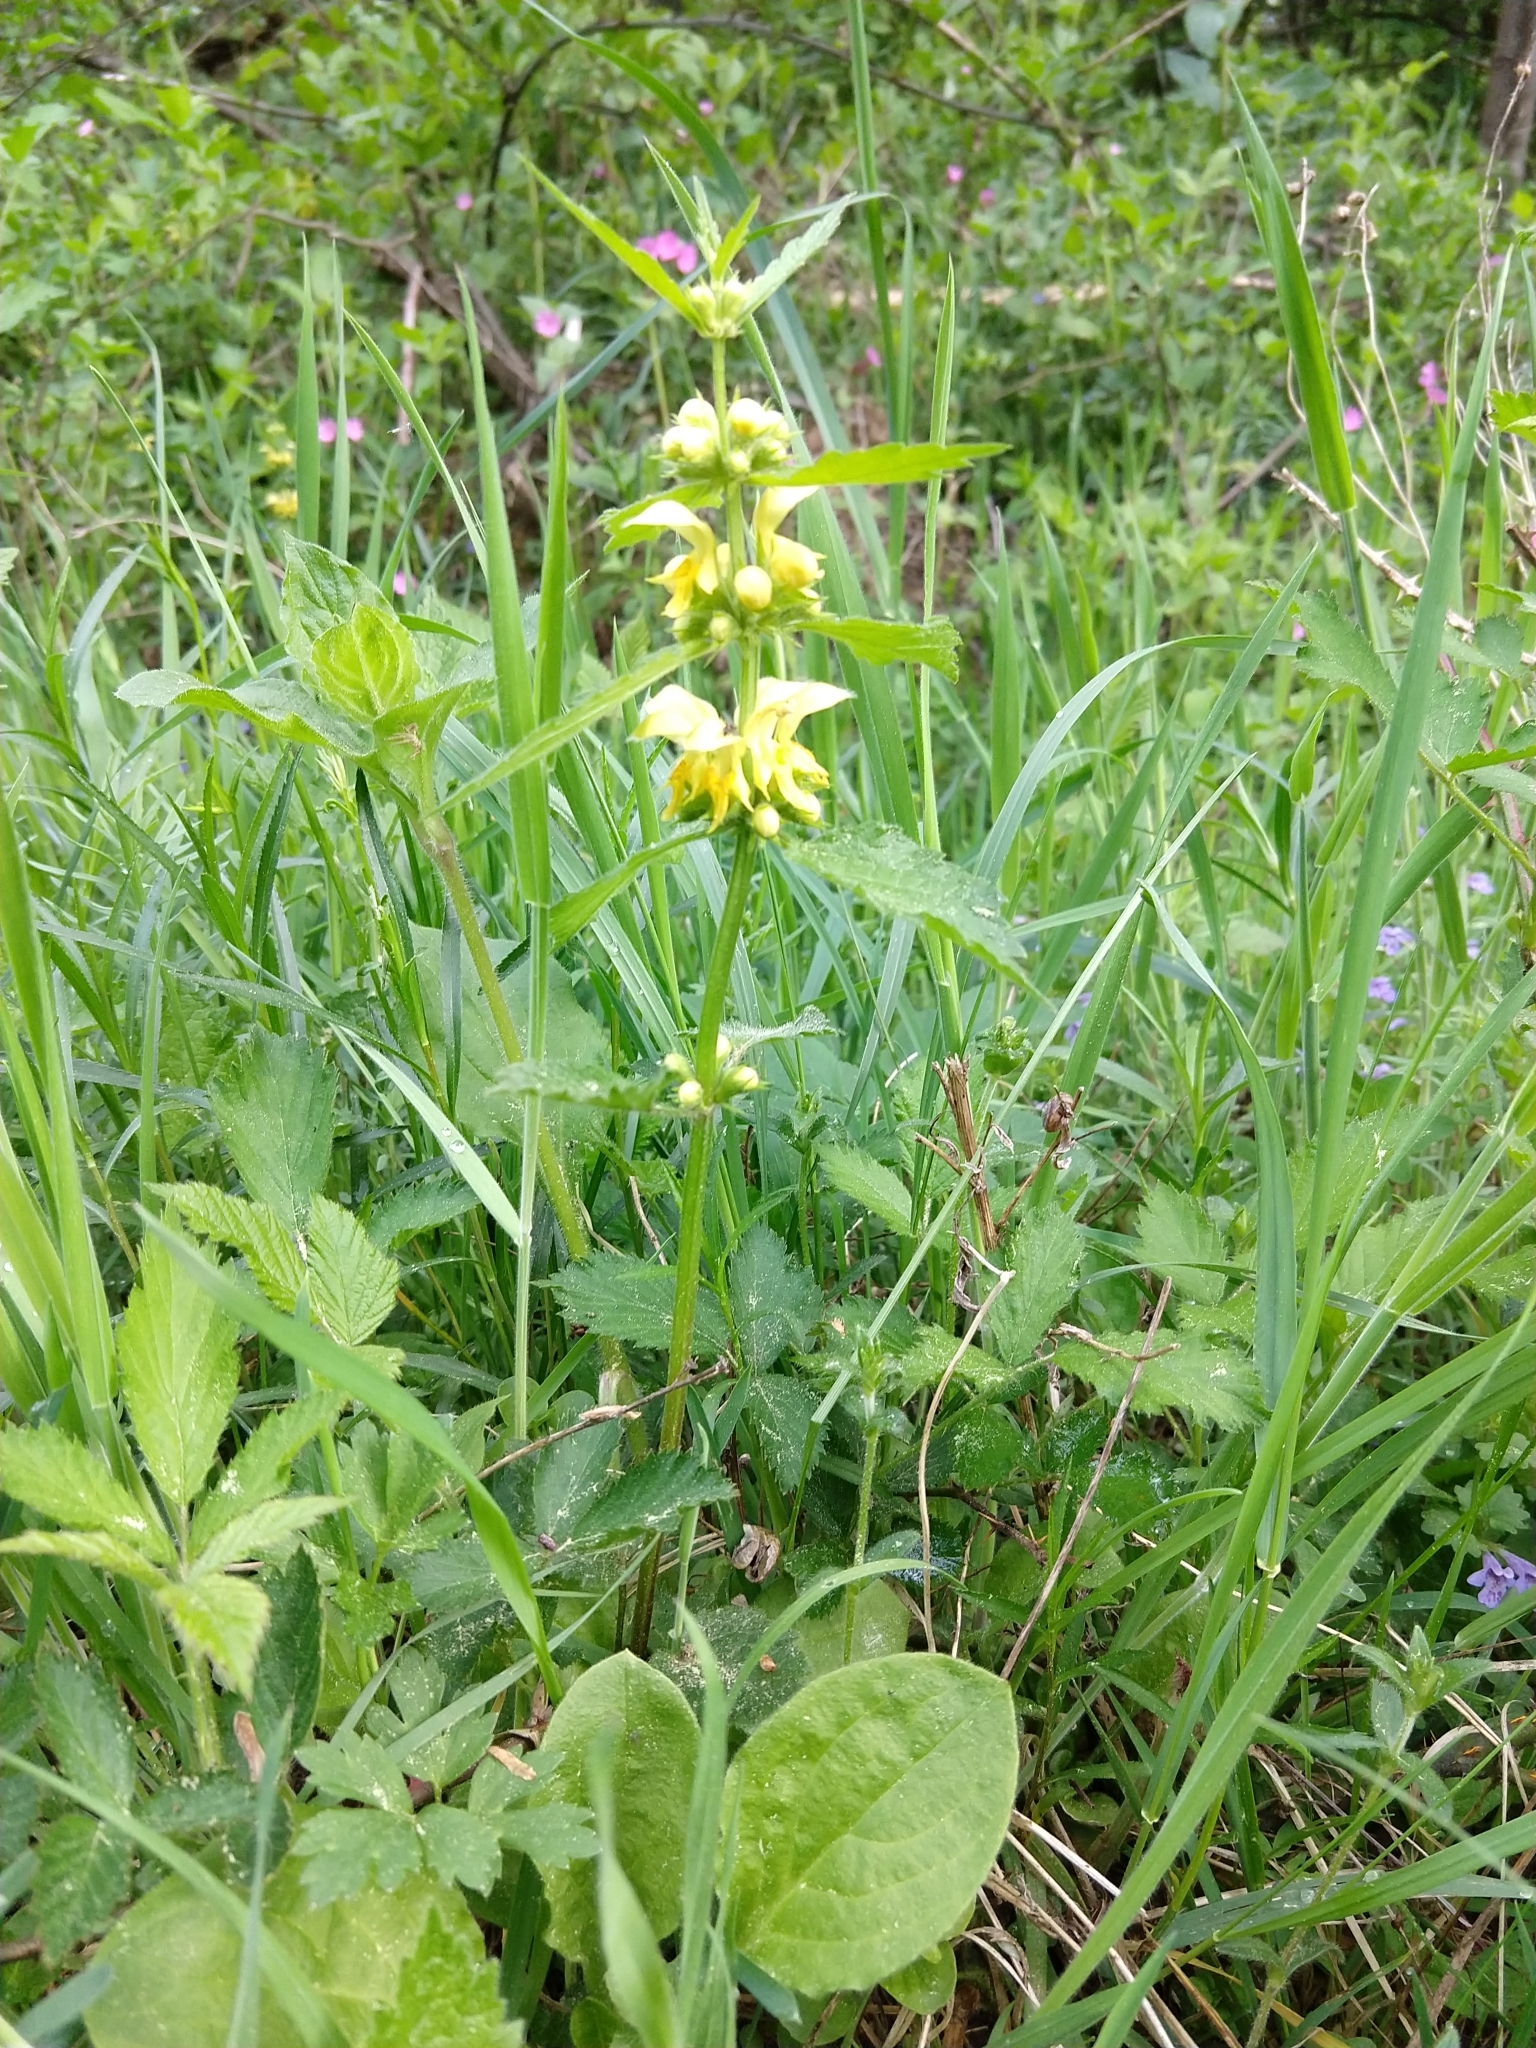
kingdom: Plantae
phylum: Tracheophyta
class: Magnoliopsida
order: Lamiales
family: Lamiaceae
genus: Lamium
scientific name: Lamium galeobdolon
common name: Yellow archangel
